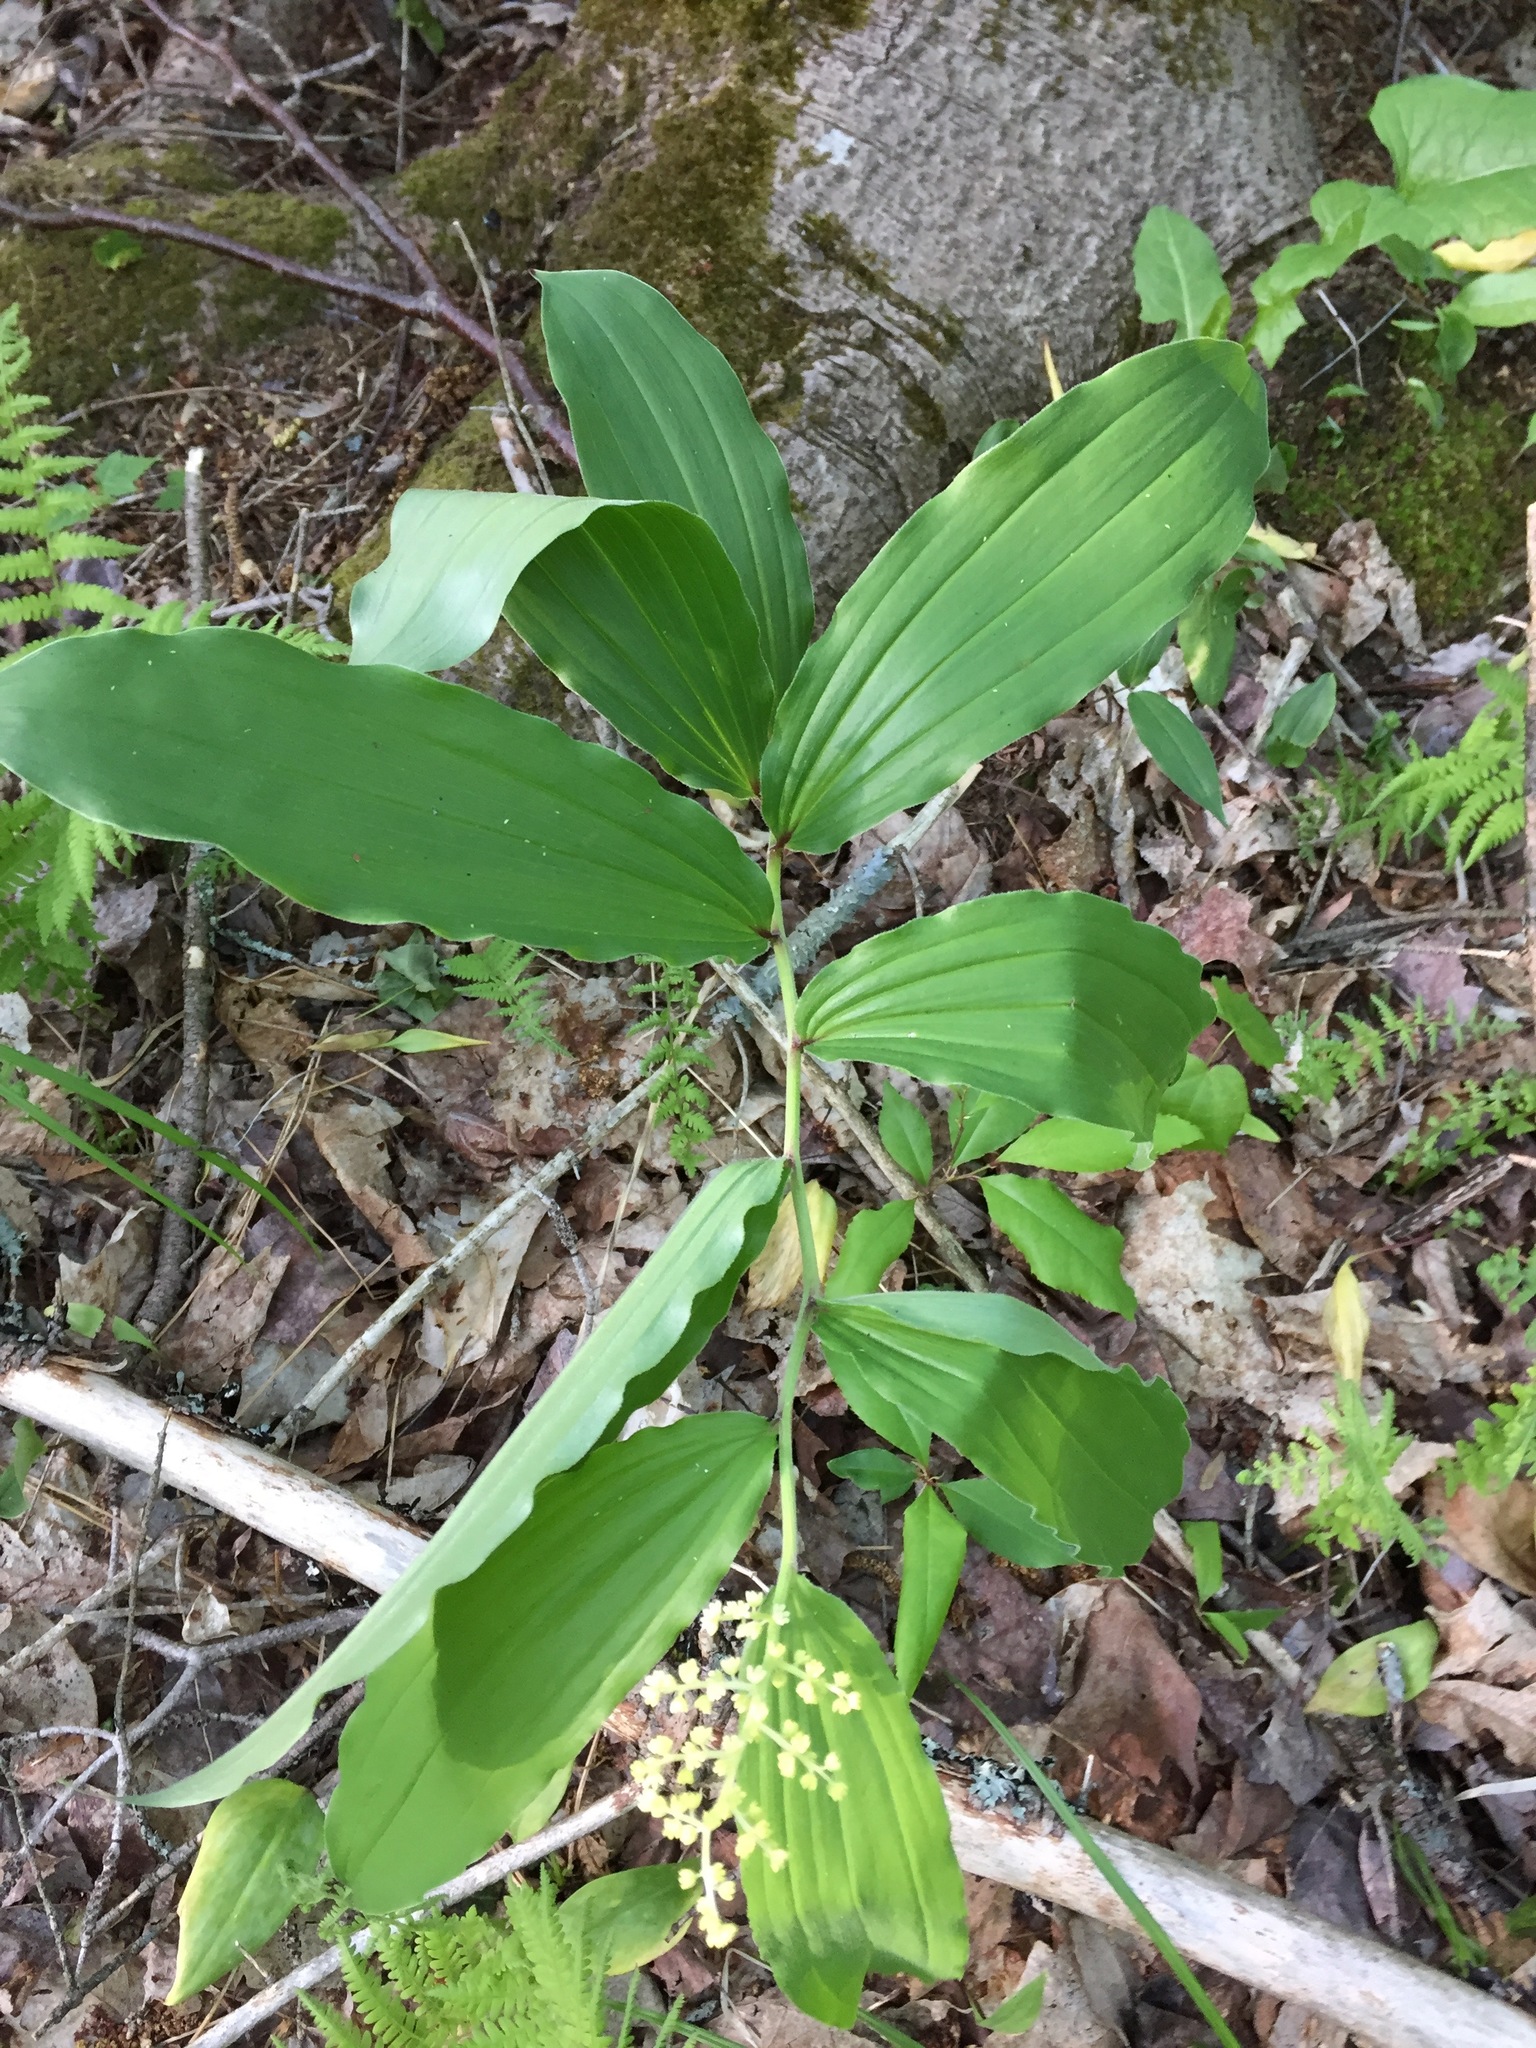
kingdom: Plantae
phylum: Tracheophyta
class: Liliopsida
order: Asparagales
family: Asparagaceae
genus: Maianthemum
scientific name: Maianthemum racemosum
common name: False spikenard
